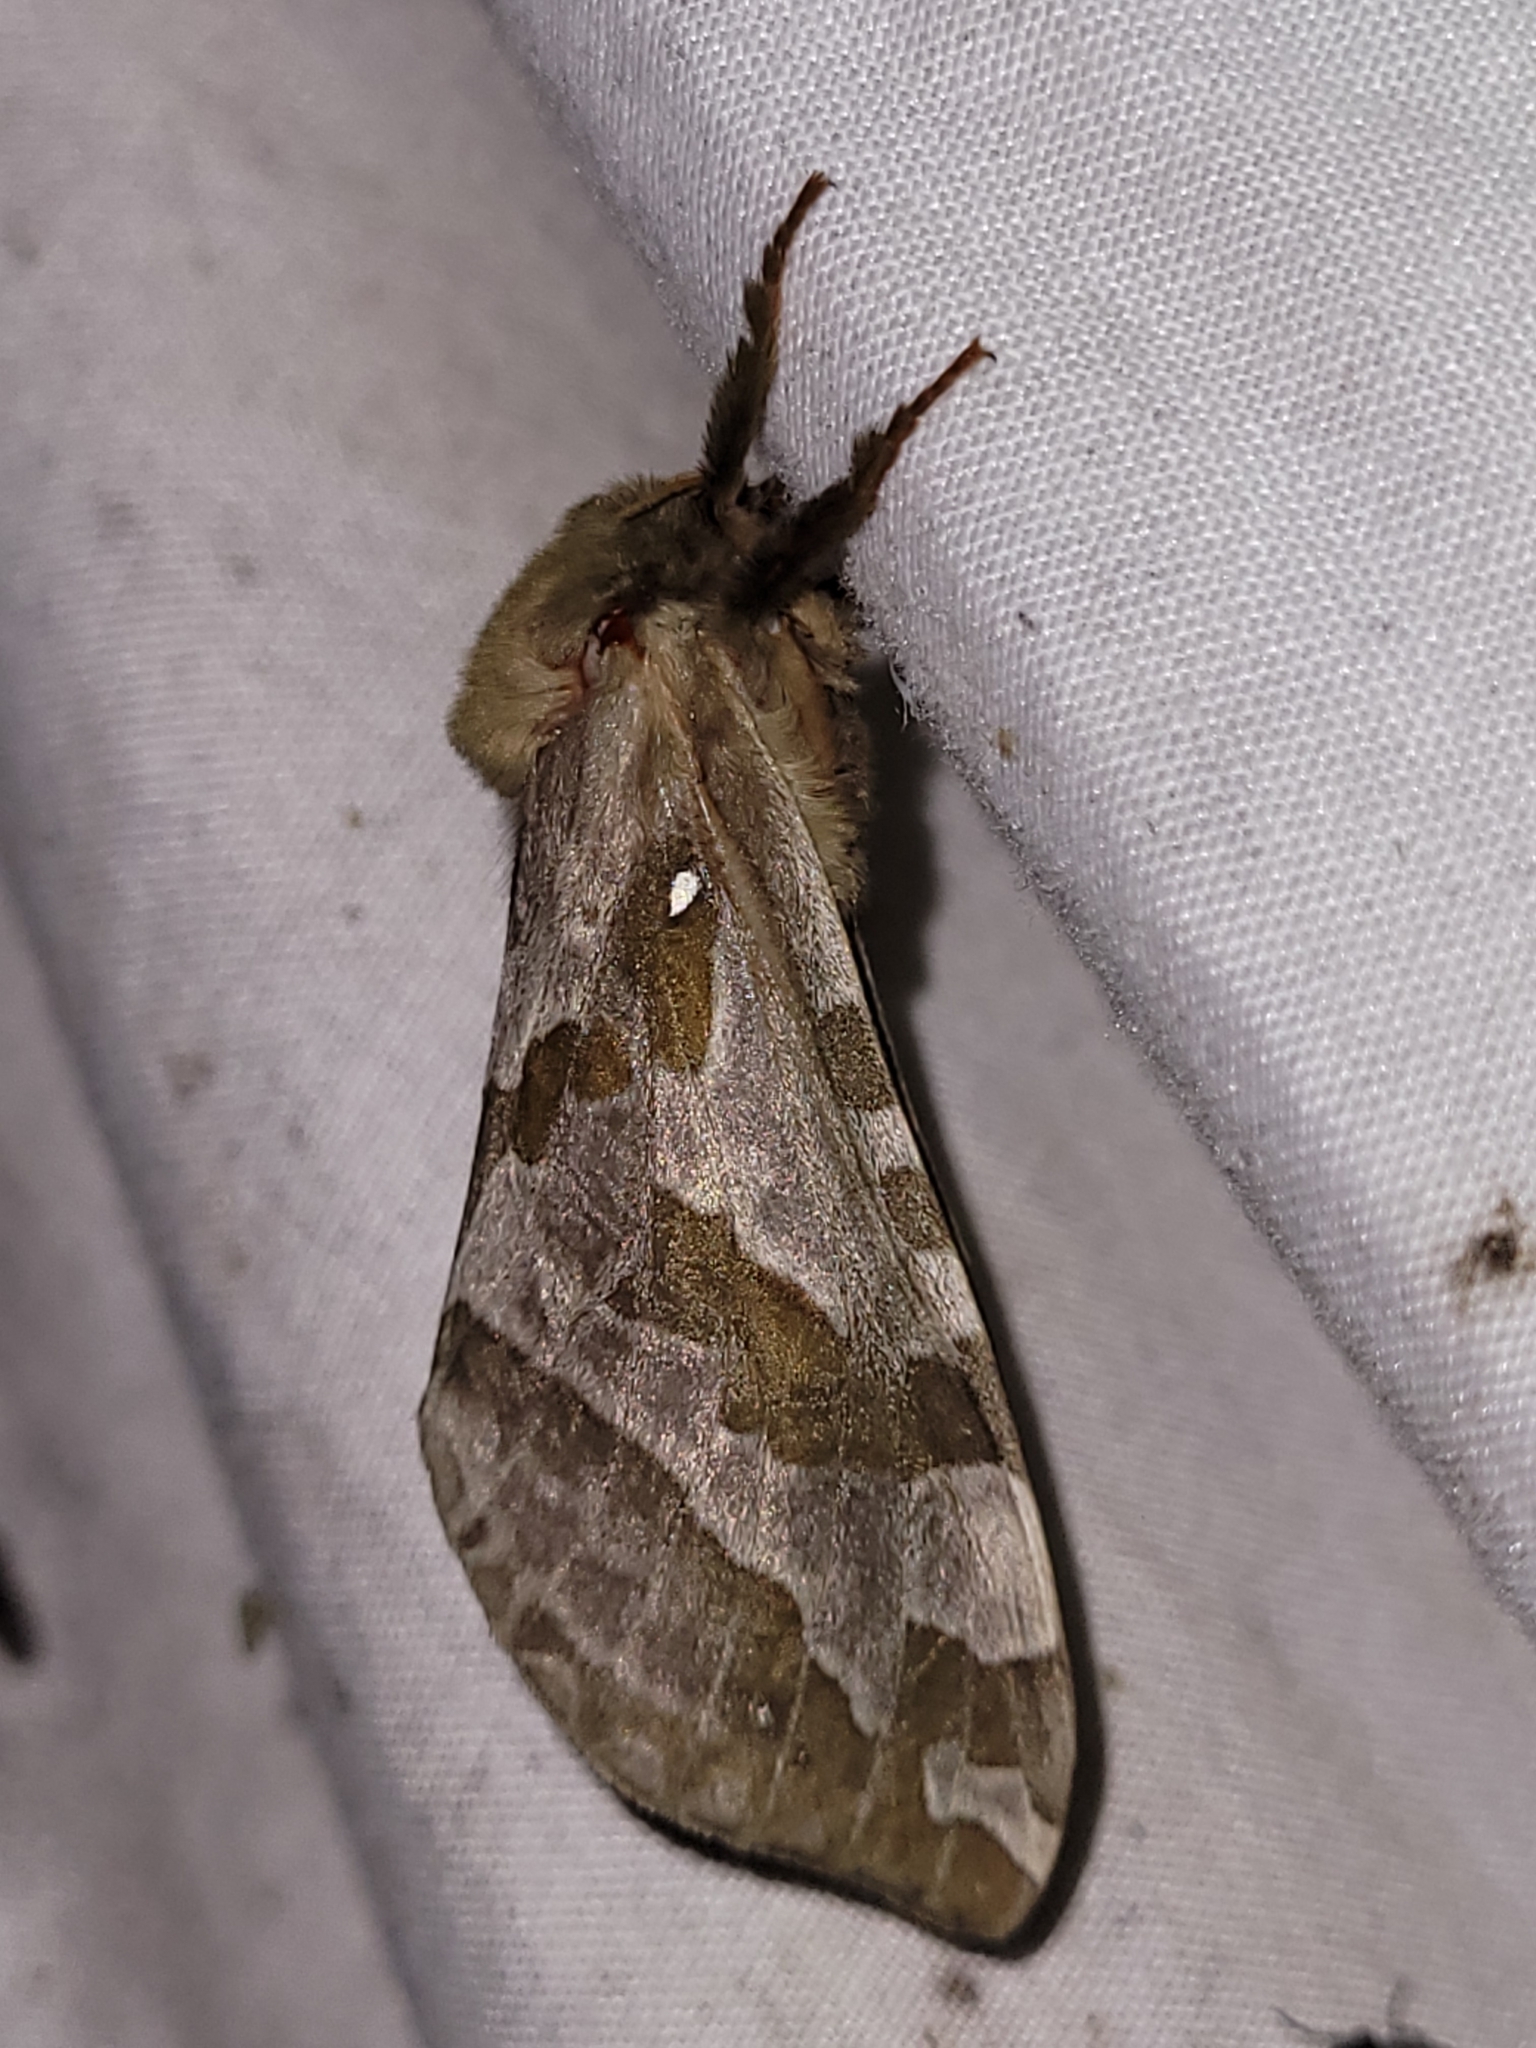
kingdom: Animalia
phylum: Arthropoda
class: Insecta
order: Lepidoptera
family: Hepialidae
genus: Sthenopis
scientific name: Sthenopis purpurascens
